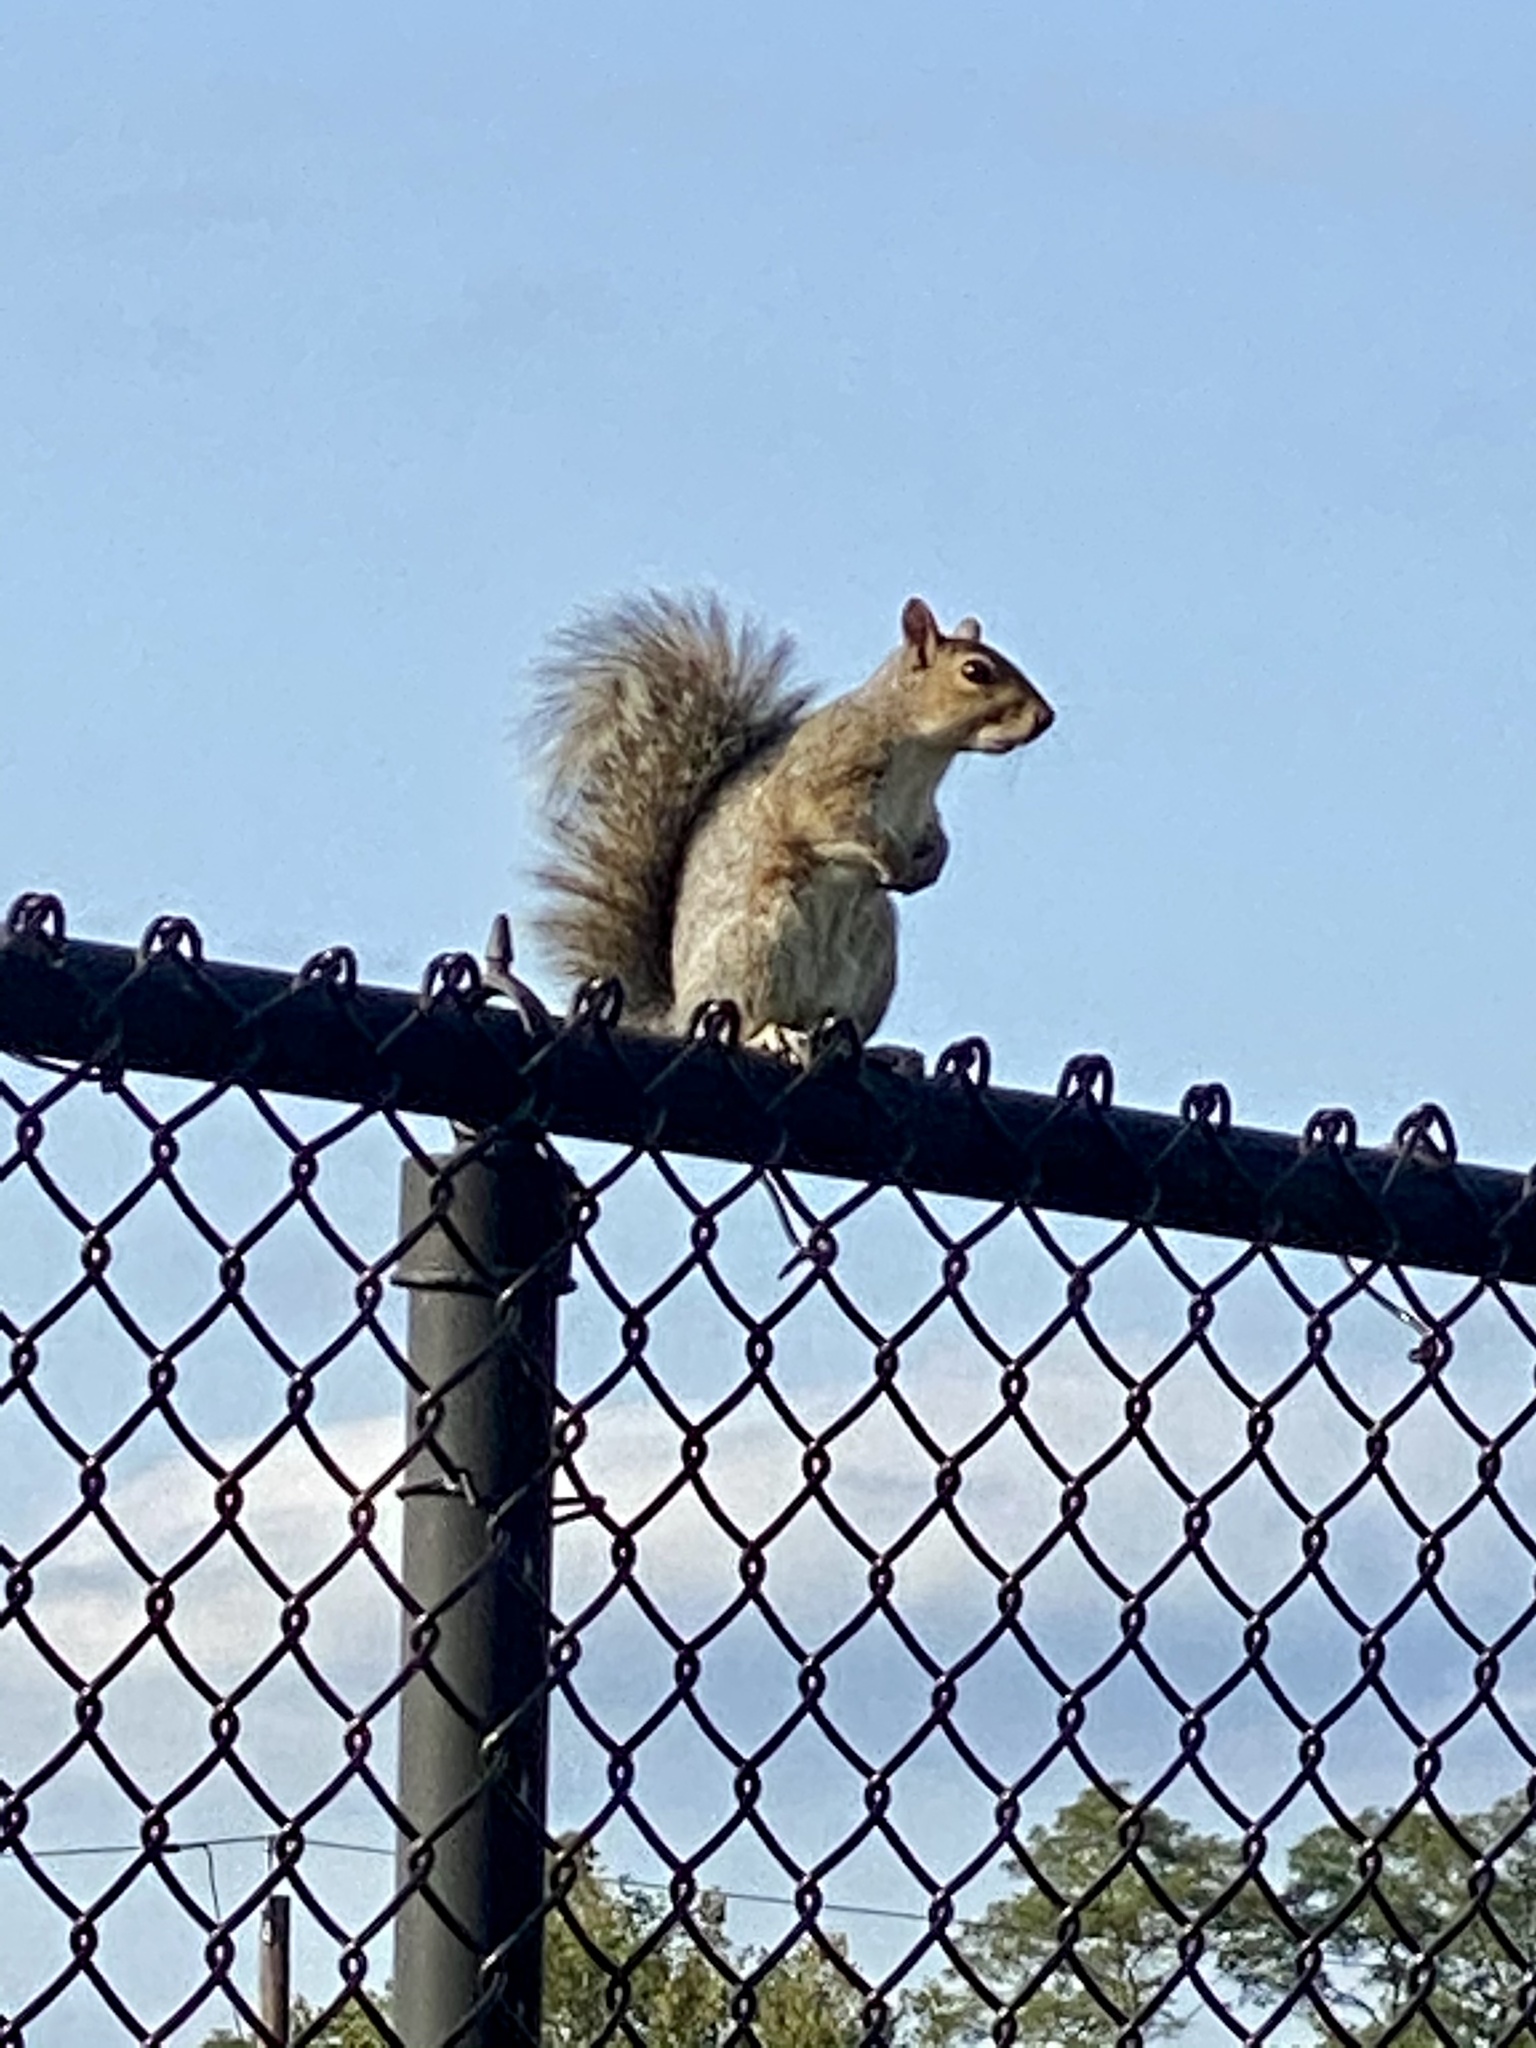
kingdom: Animalia
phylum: Chordata
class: Mammalia
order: Rodentia
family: Sciuridae
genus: Sciurus
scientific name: Sciurus carolinensis
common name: Eastern gray squirrel
